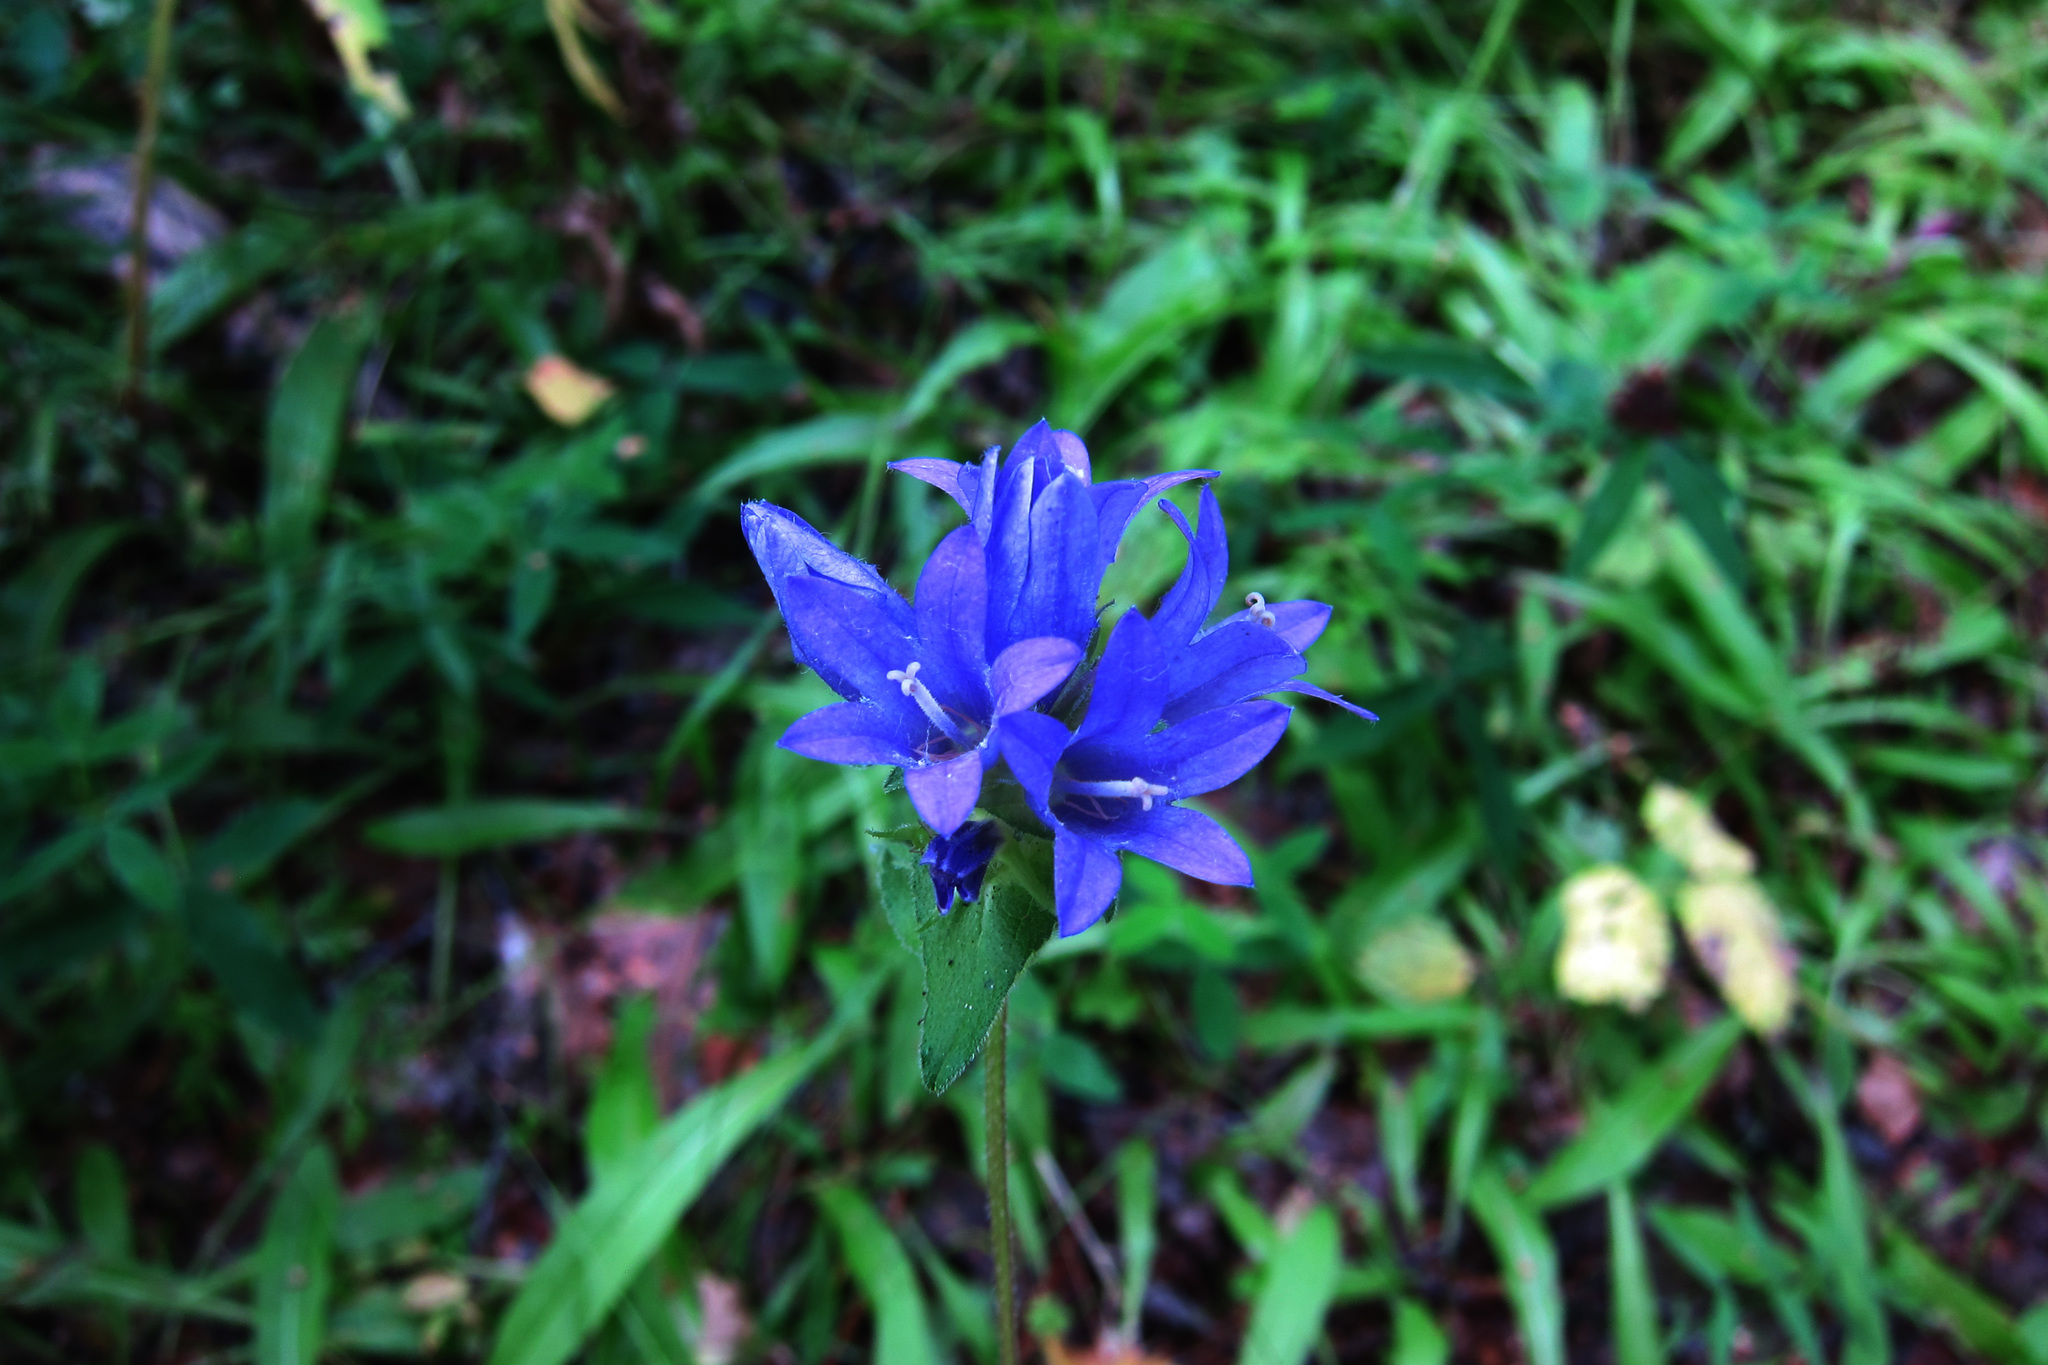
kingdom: Plantae
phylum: Tracheophyta
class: Magnoliopsida
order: Asterales
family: Campanulaceae
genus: Campanula
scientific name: Campanula glomerata
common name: Clustered bellflower
